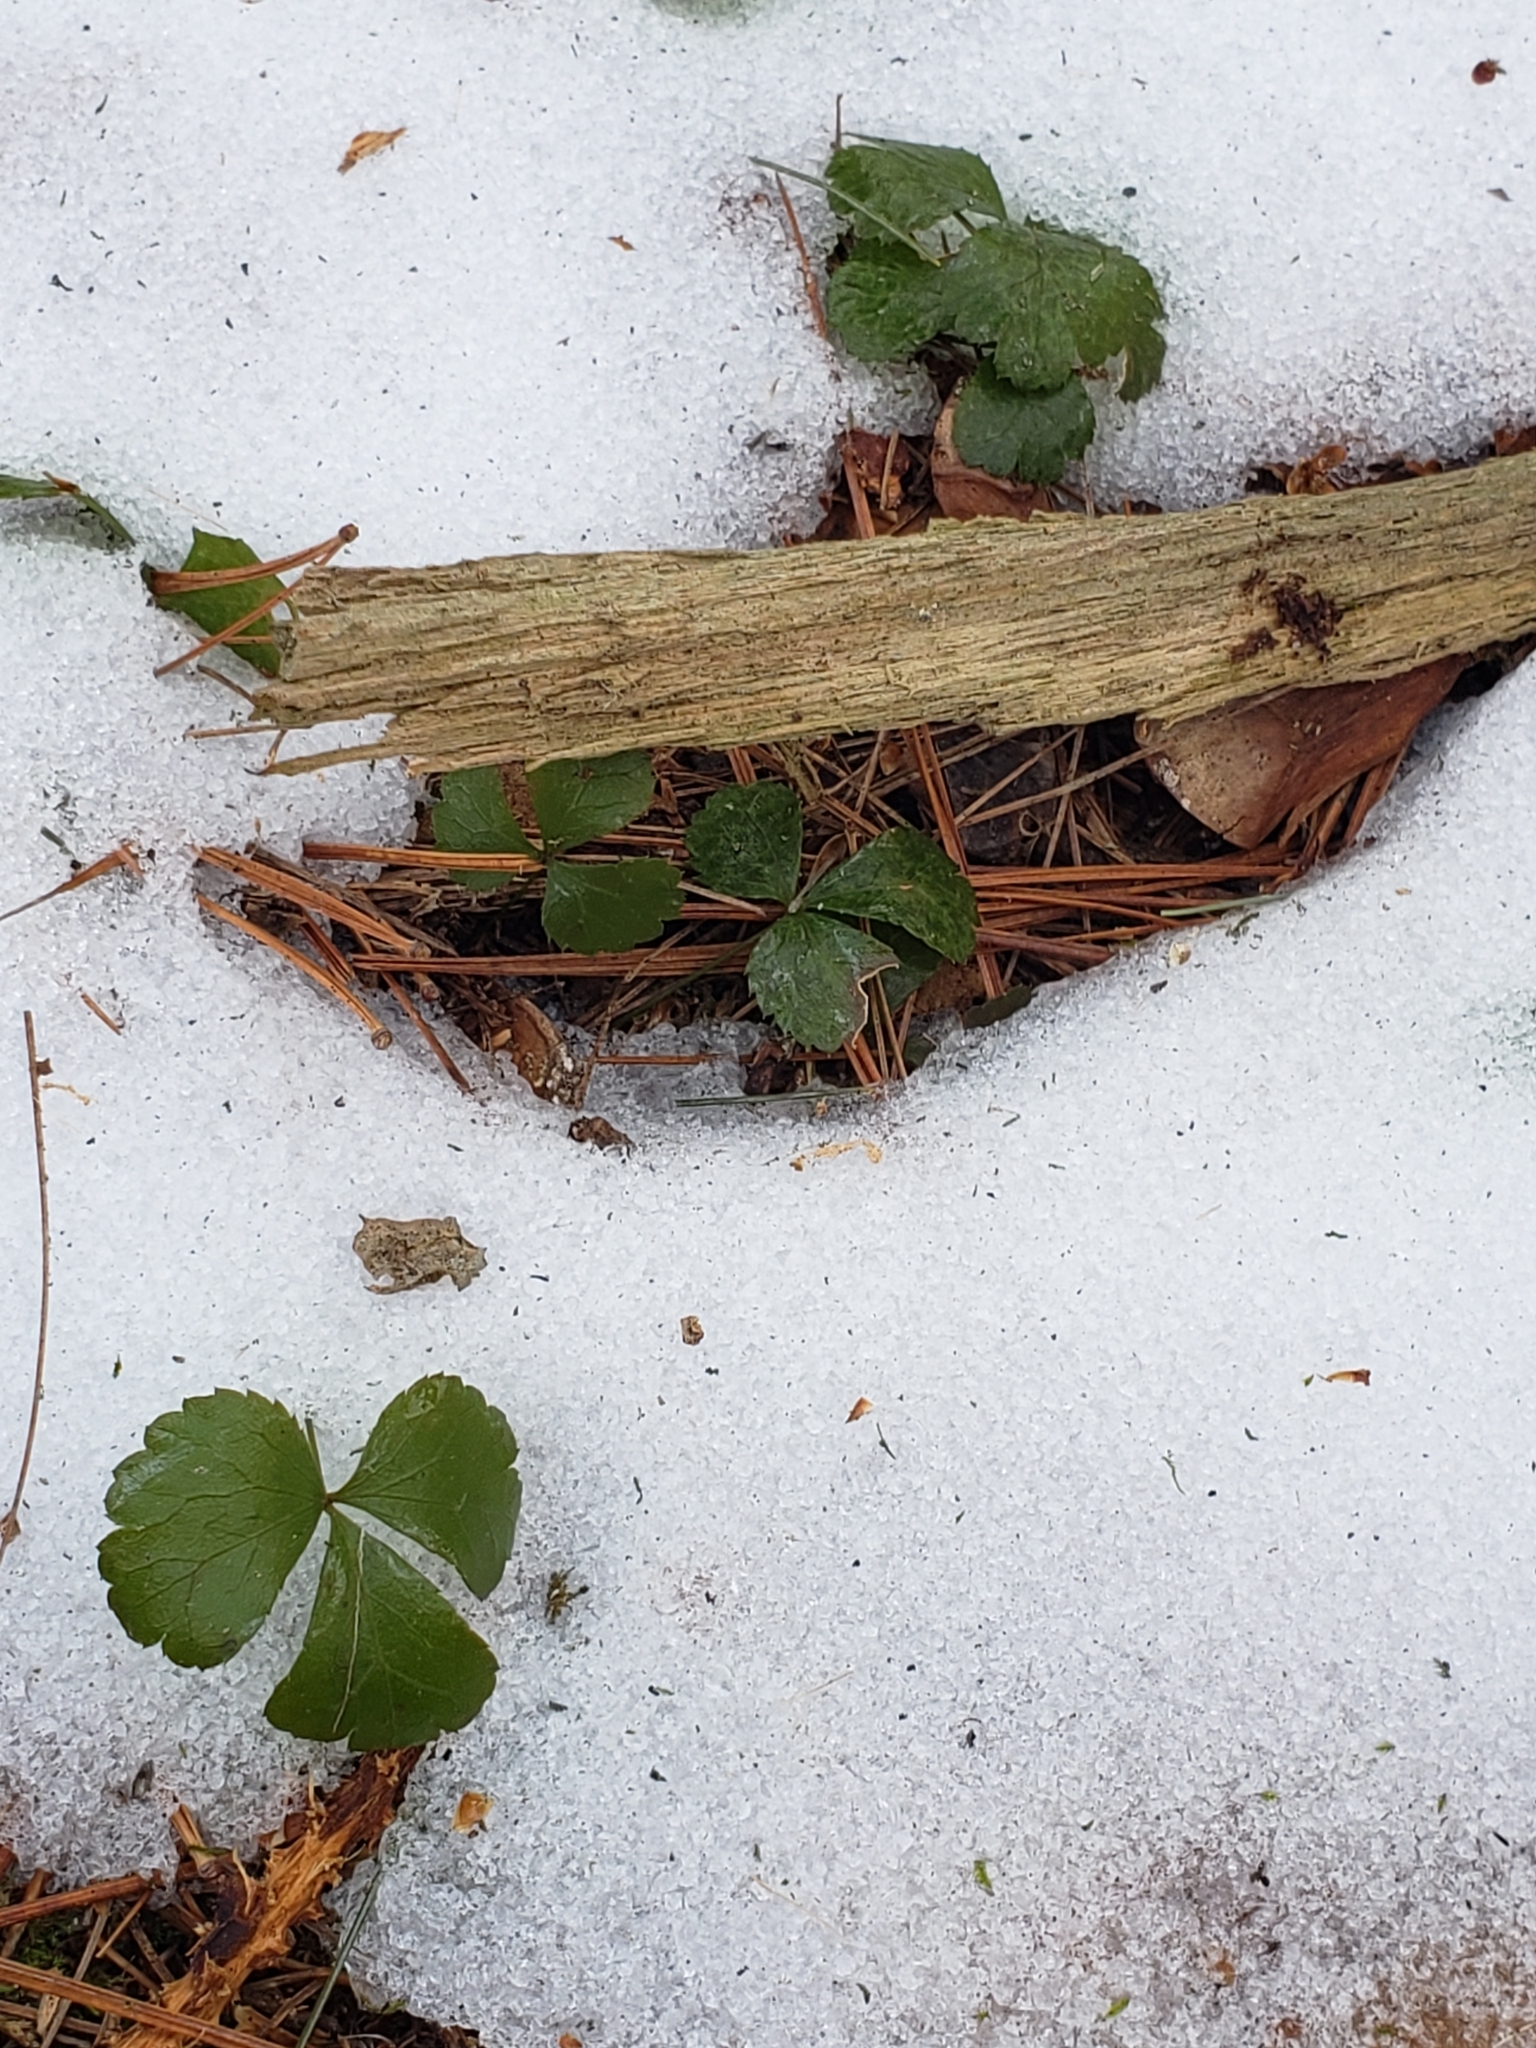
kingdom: Plantae
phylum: Tracheophyta
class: Magnoliopsida
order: Ranunculales
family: Ranunculaceae
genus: Coptis
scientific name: Coptis trifolia
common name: Canker-root
